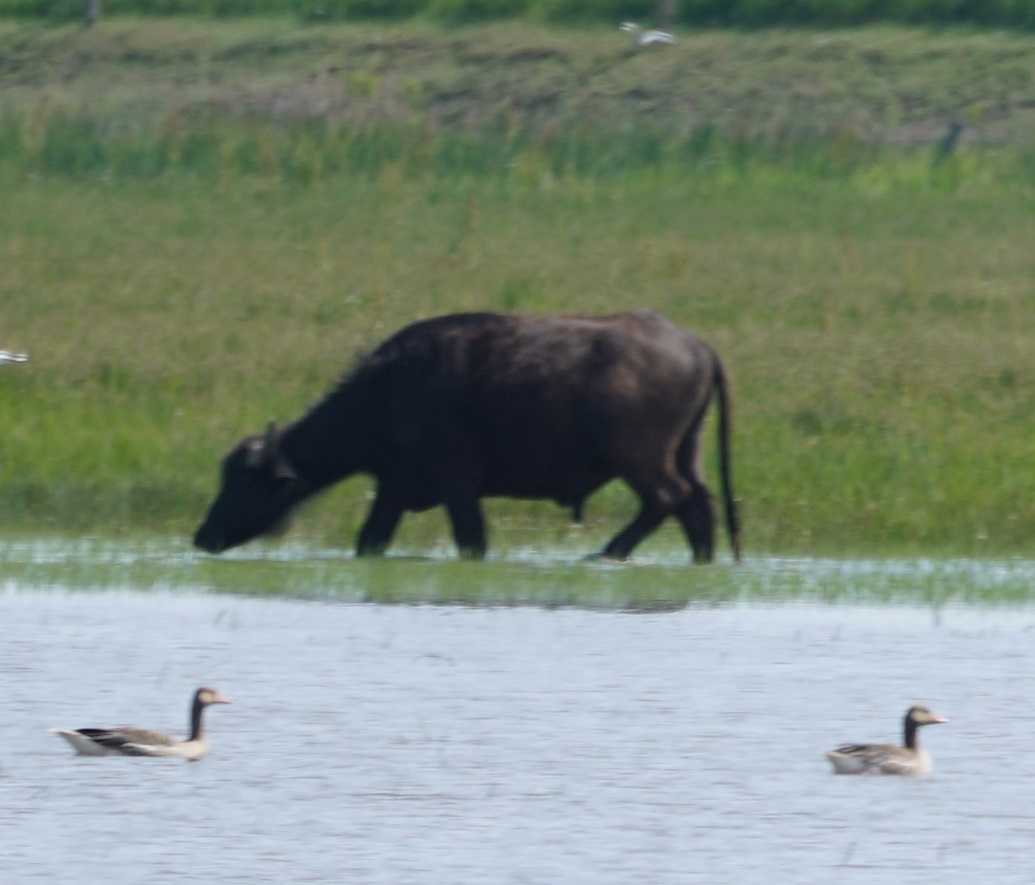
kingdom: Animalia
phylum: Chordata
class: Mammalia
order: Artiodactyla
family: Bovidae
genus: Bubalus
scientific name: Bubalus bubalis
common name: Water buffalo
